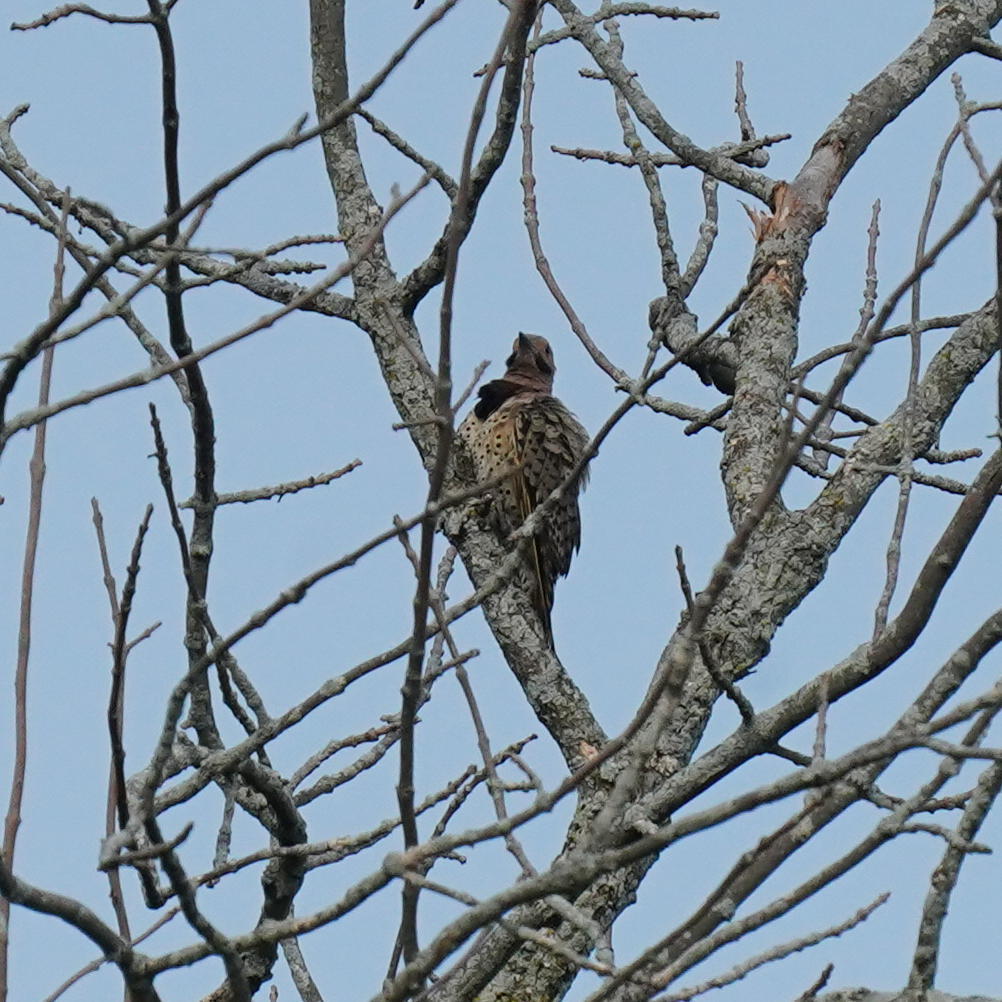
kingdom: Animalia
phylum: Chordata
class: Aves
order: Piciformes
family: Picidae
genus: Colaptes
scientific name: Colaptes auratus
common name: Northern flicker
